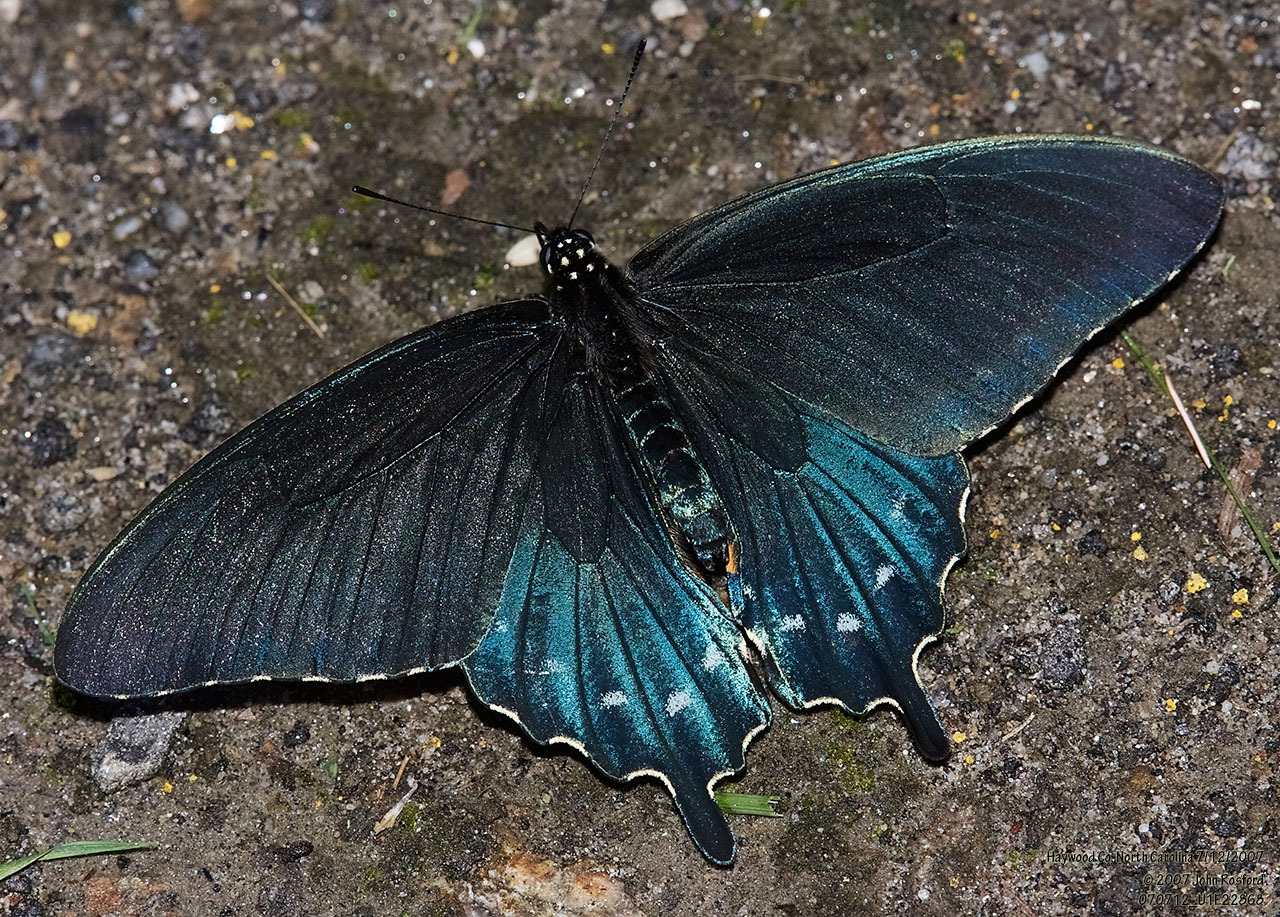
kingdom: Animalia
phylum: Arthropoda
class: Insecta
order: Lepidoptera
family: Papilionidae
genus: Battus
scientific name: Battus philenor
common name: Pipevine swallowtail
